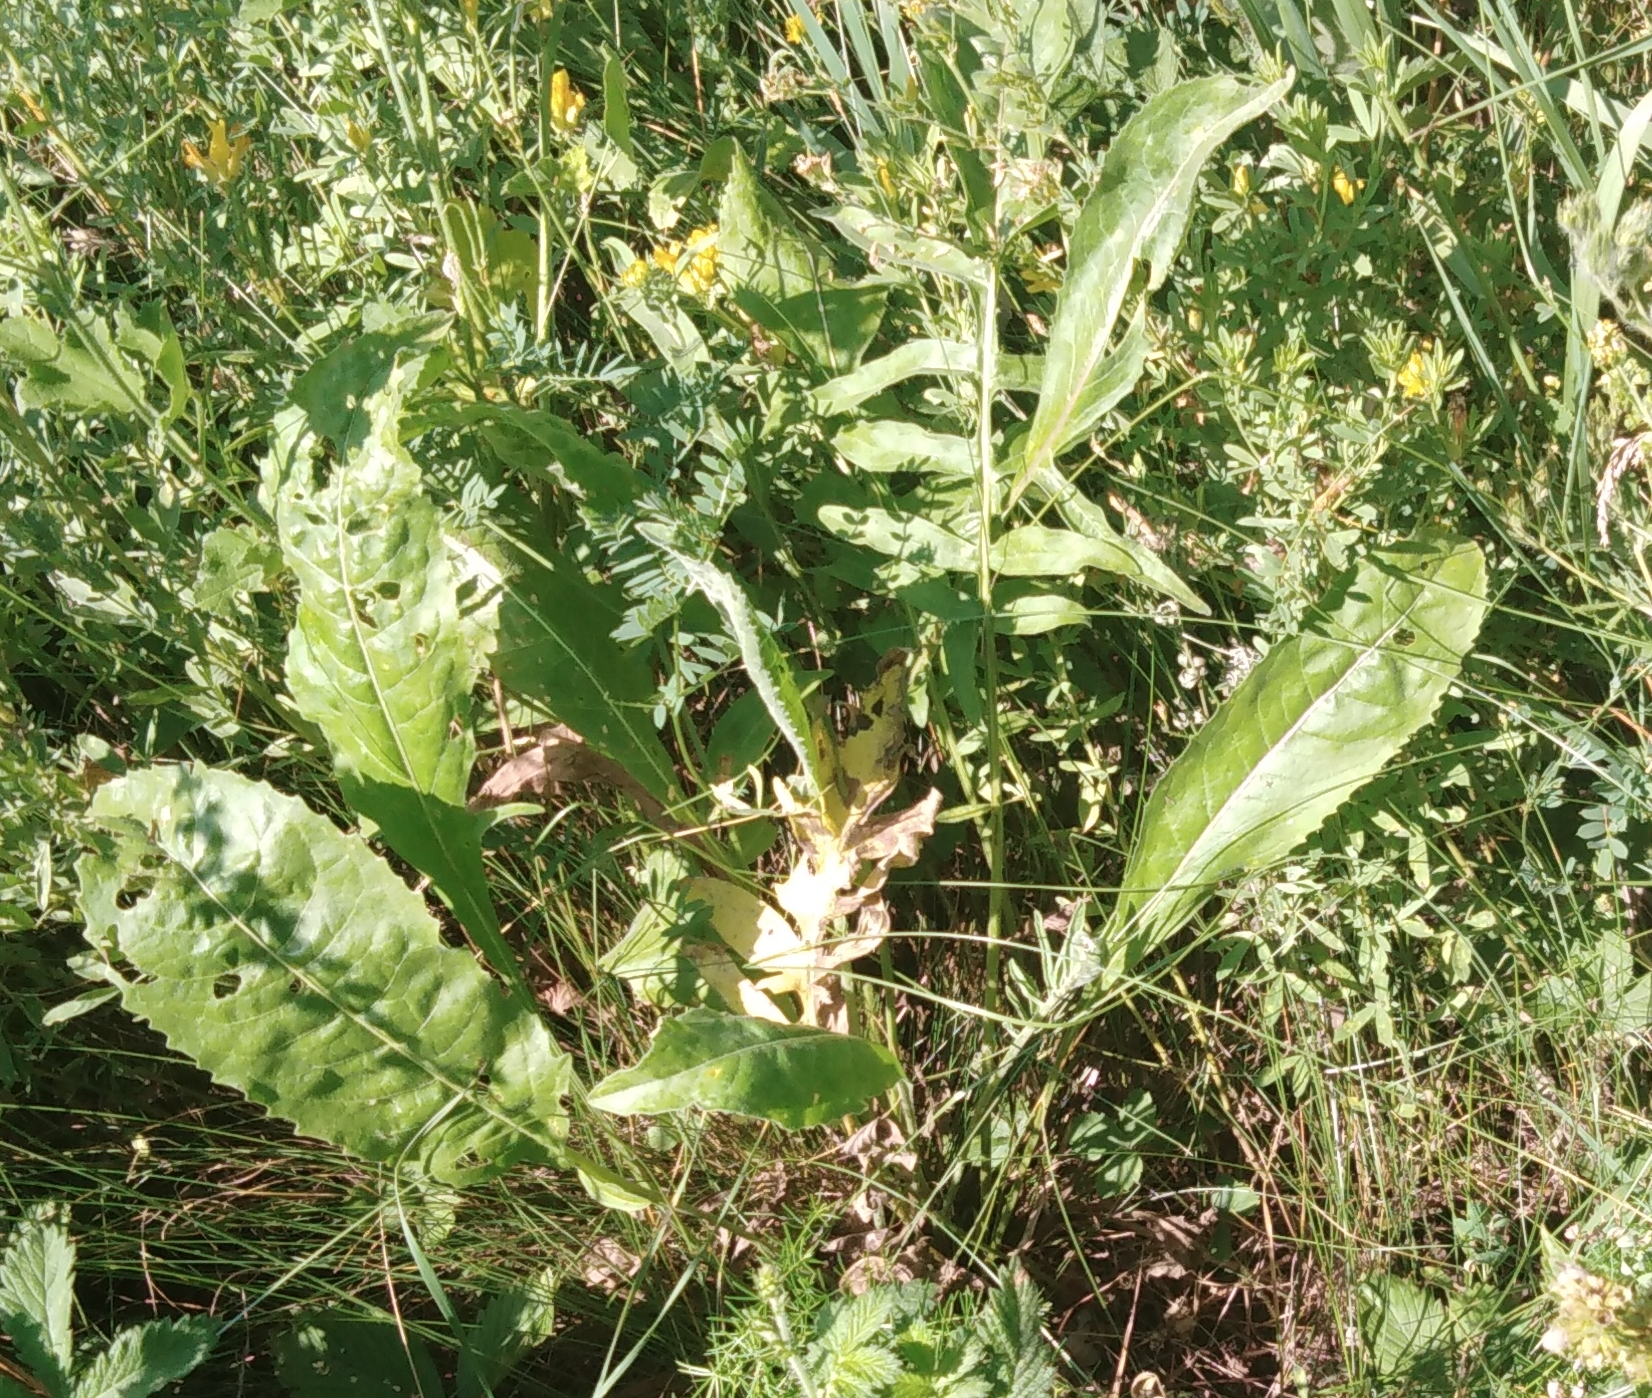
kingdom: Plantae
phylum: Tracheophyta
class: Magnoliopsida
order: Asterales
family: Asteraceae
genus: Centaurea
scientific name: Centaurea scabiosa
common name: Greater knapweed
